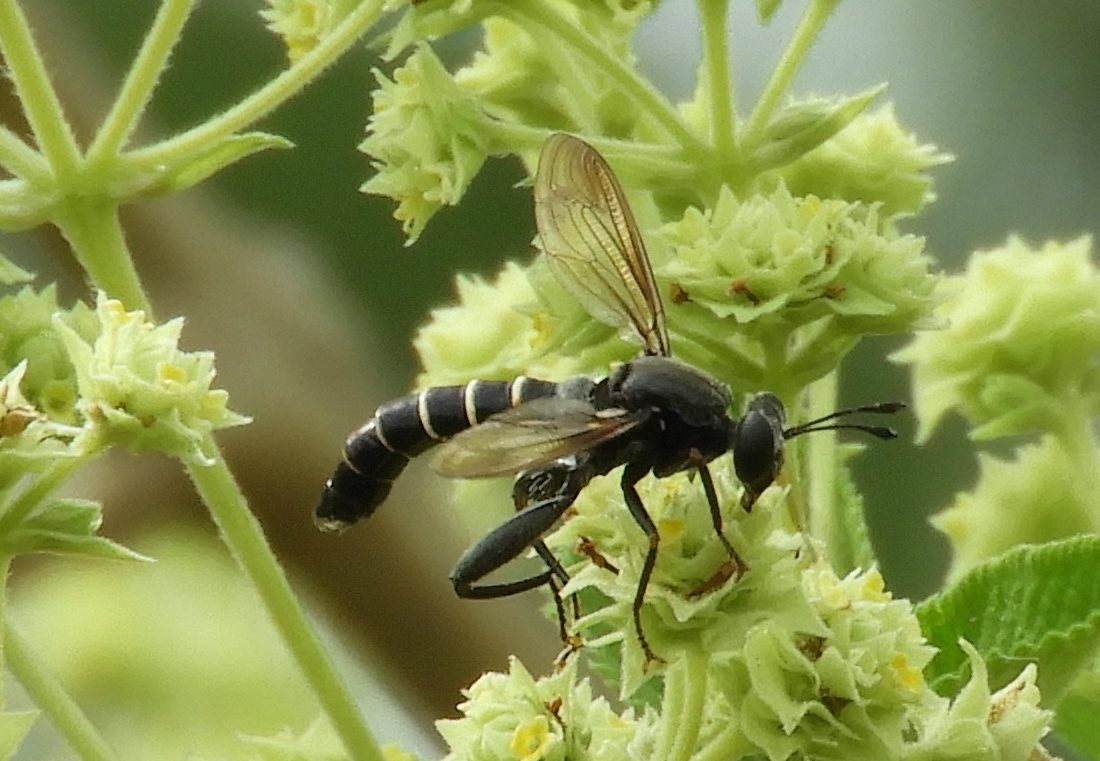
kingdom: Animalia
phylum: Arthropoda
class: Insecta
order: Diptera
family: Mydidae
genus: Mydas
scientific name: Mydas
